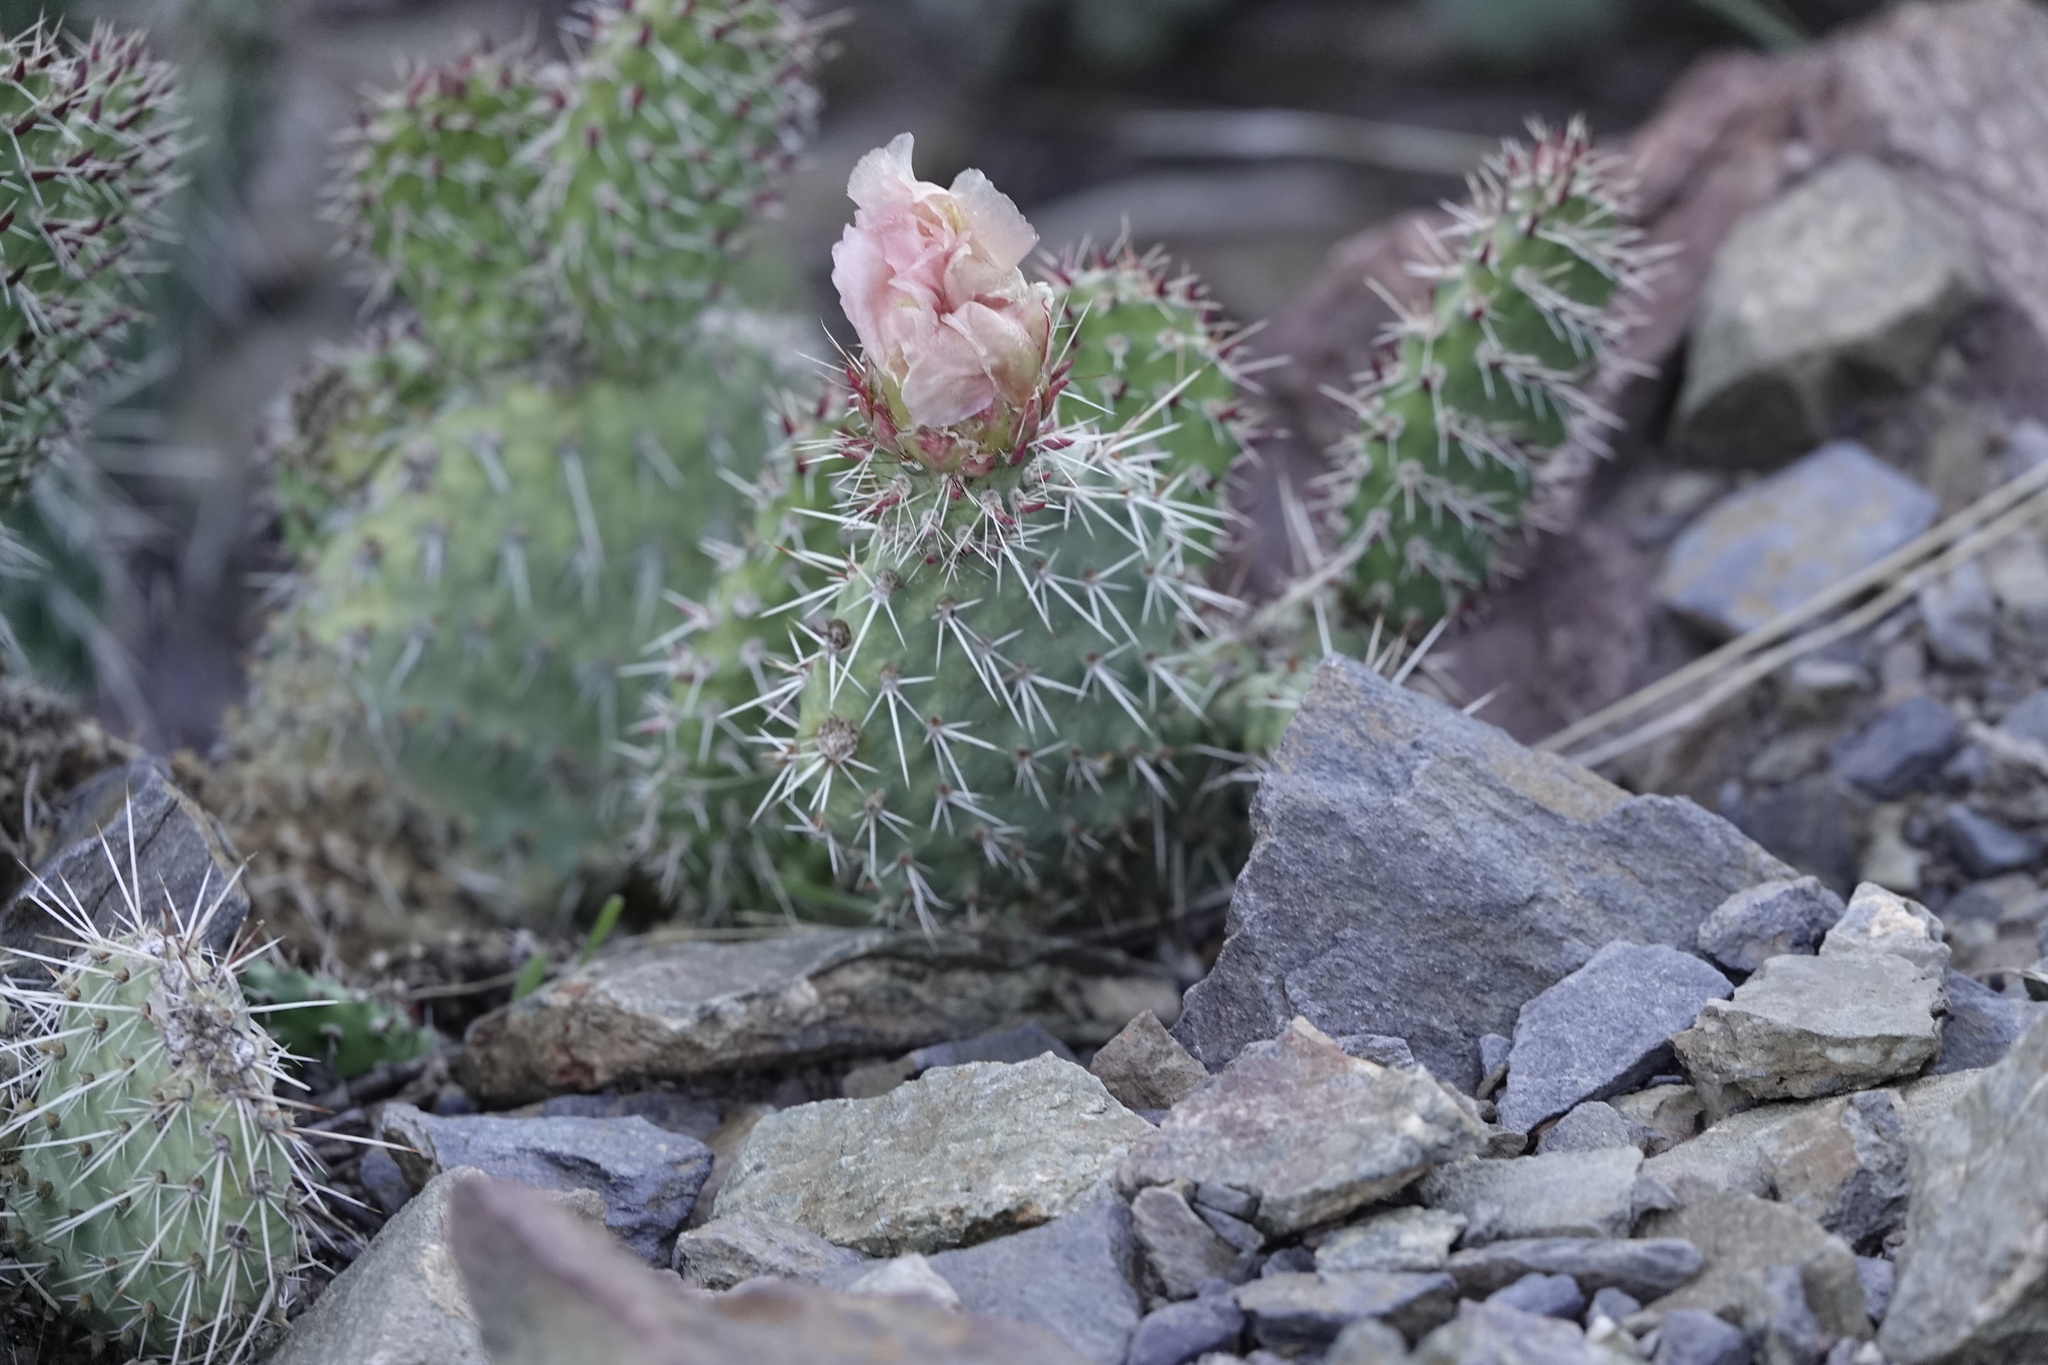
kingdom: Plantae
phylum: Tracheophyta
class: Magnoliopsida
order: Caryophyllales
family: Cactaceae
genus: Opuntia
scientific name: Opuntia polyacantha
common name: Plains prickly-pear
